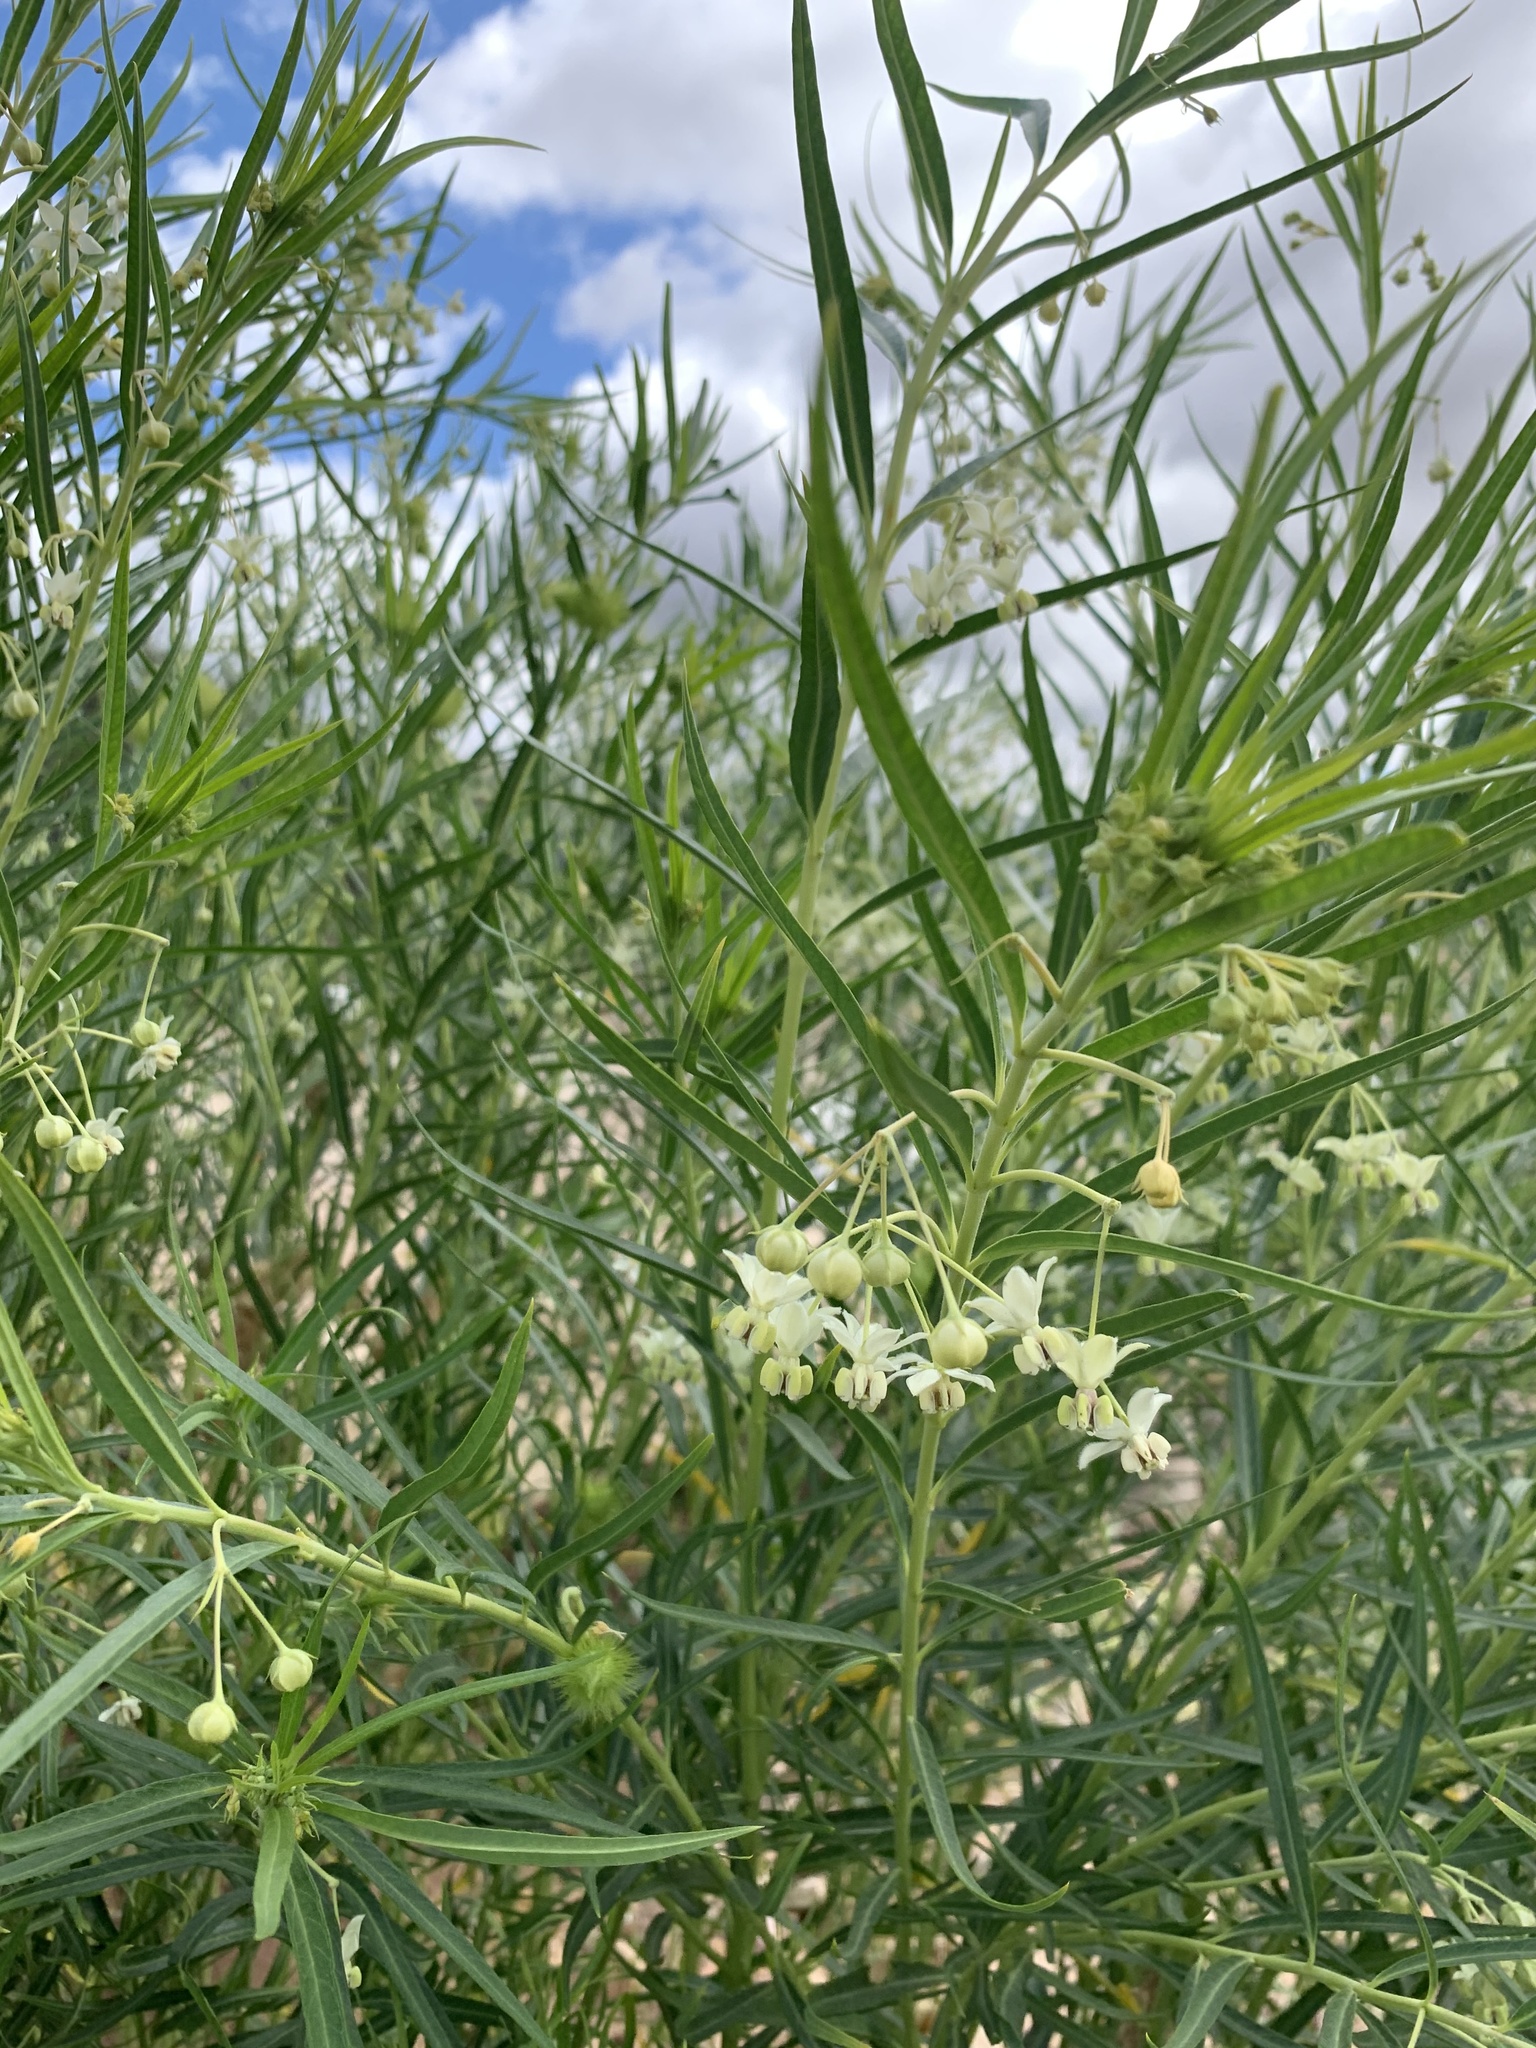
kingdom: Plantae
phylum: Tracheophyta
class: Magnoliopsida
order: Gentianales
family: Apocynaceae
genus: Gomphocarpus
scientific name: Gomphocarpus fruticosus
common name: Milkweed
